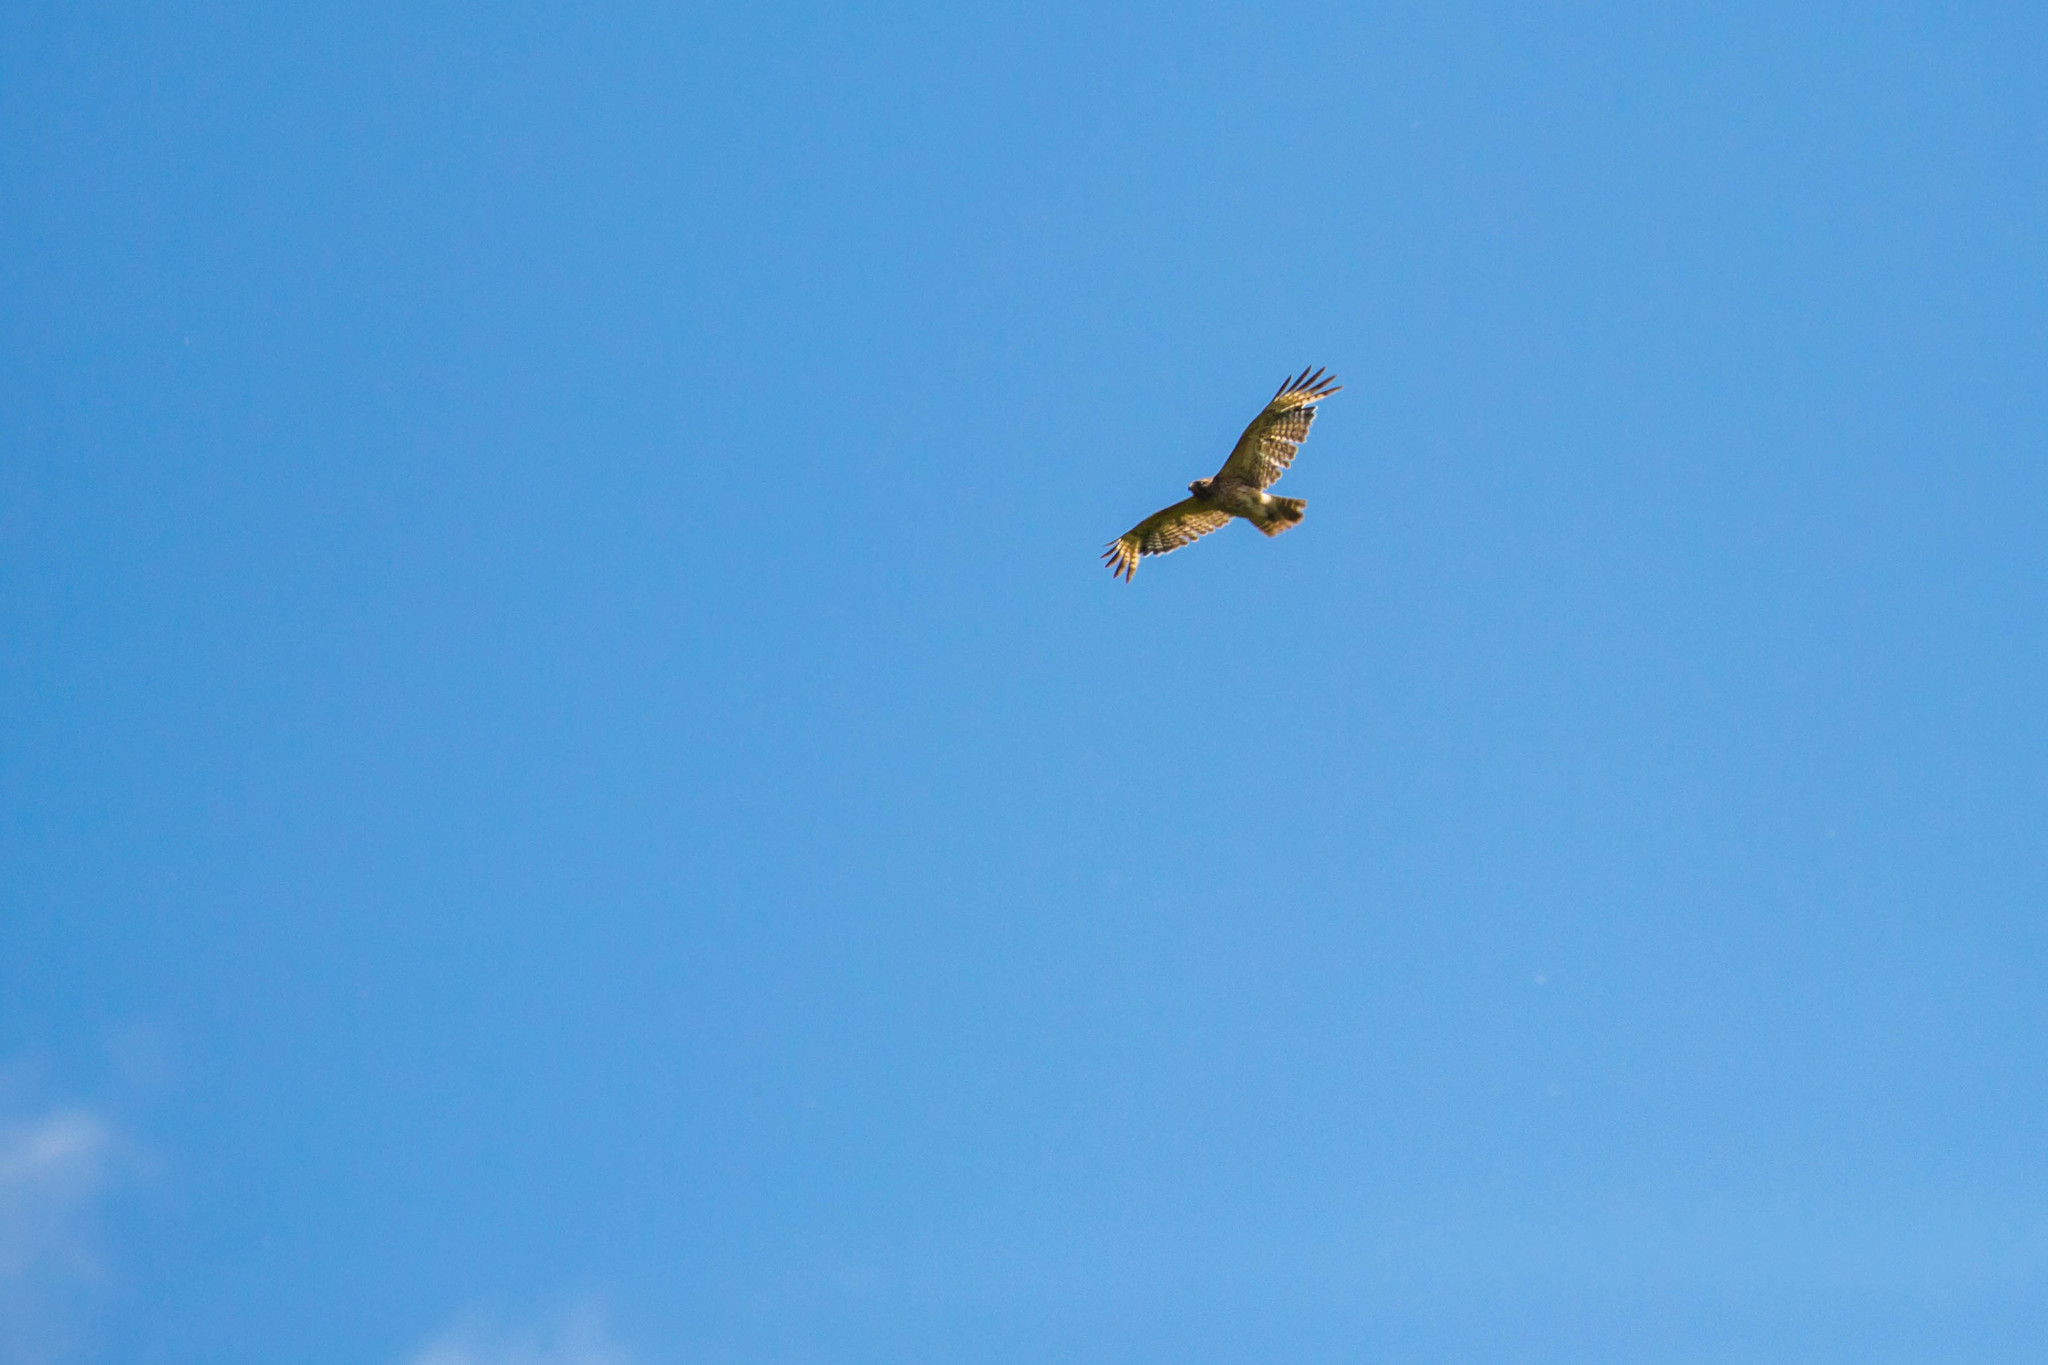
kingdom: Animalia
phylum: Chordata
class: Aves
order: Accipitriformes
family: Accipitridae
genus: Buteo
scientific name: Buteo lineatus
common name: Red-shouldered hawk
